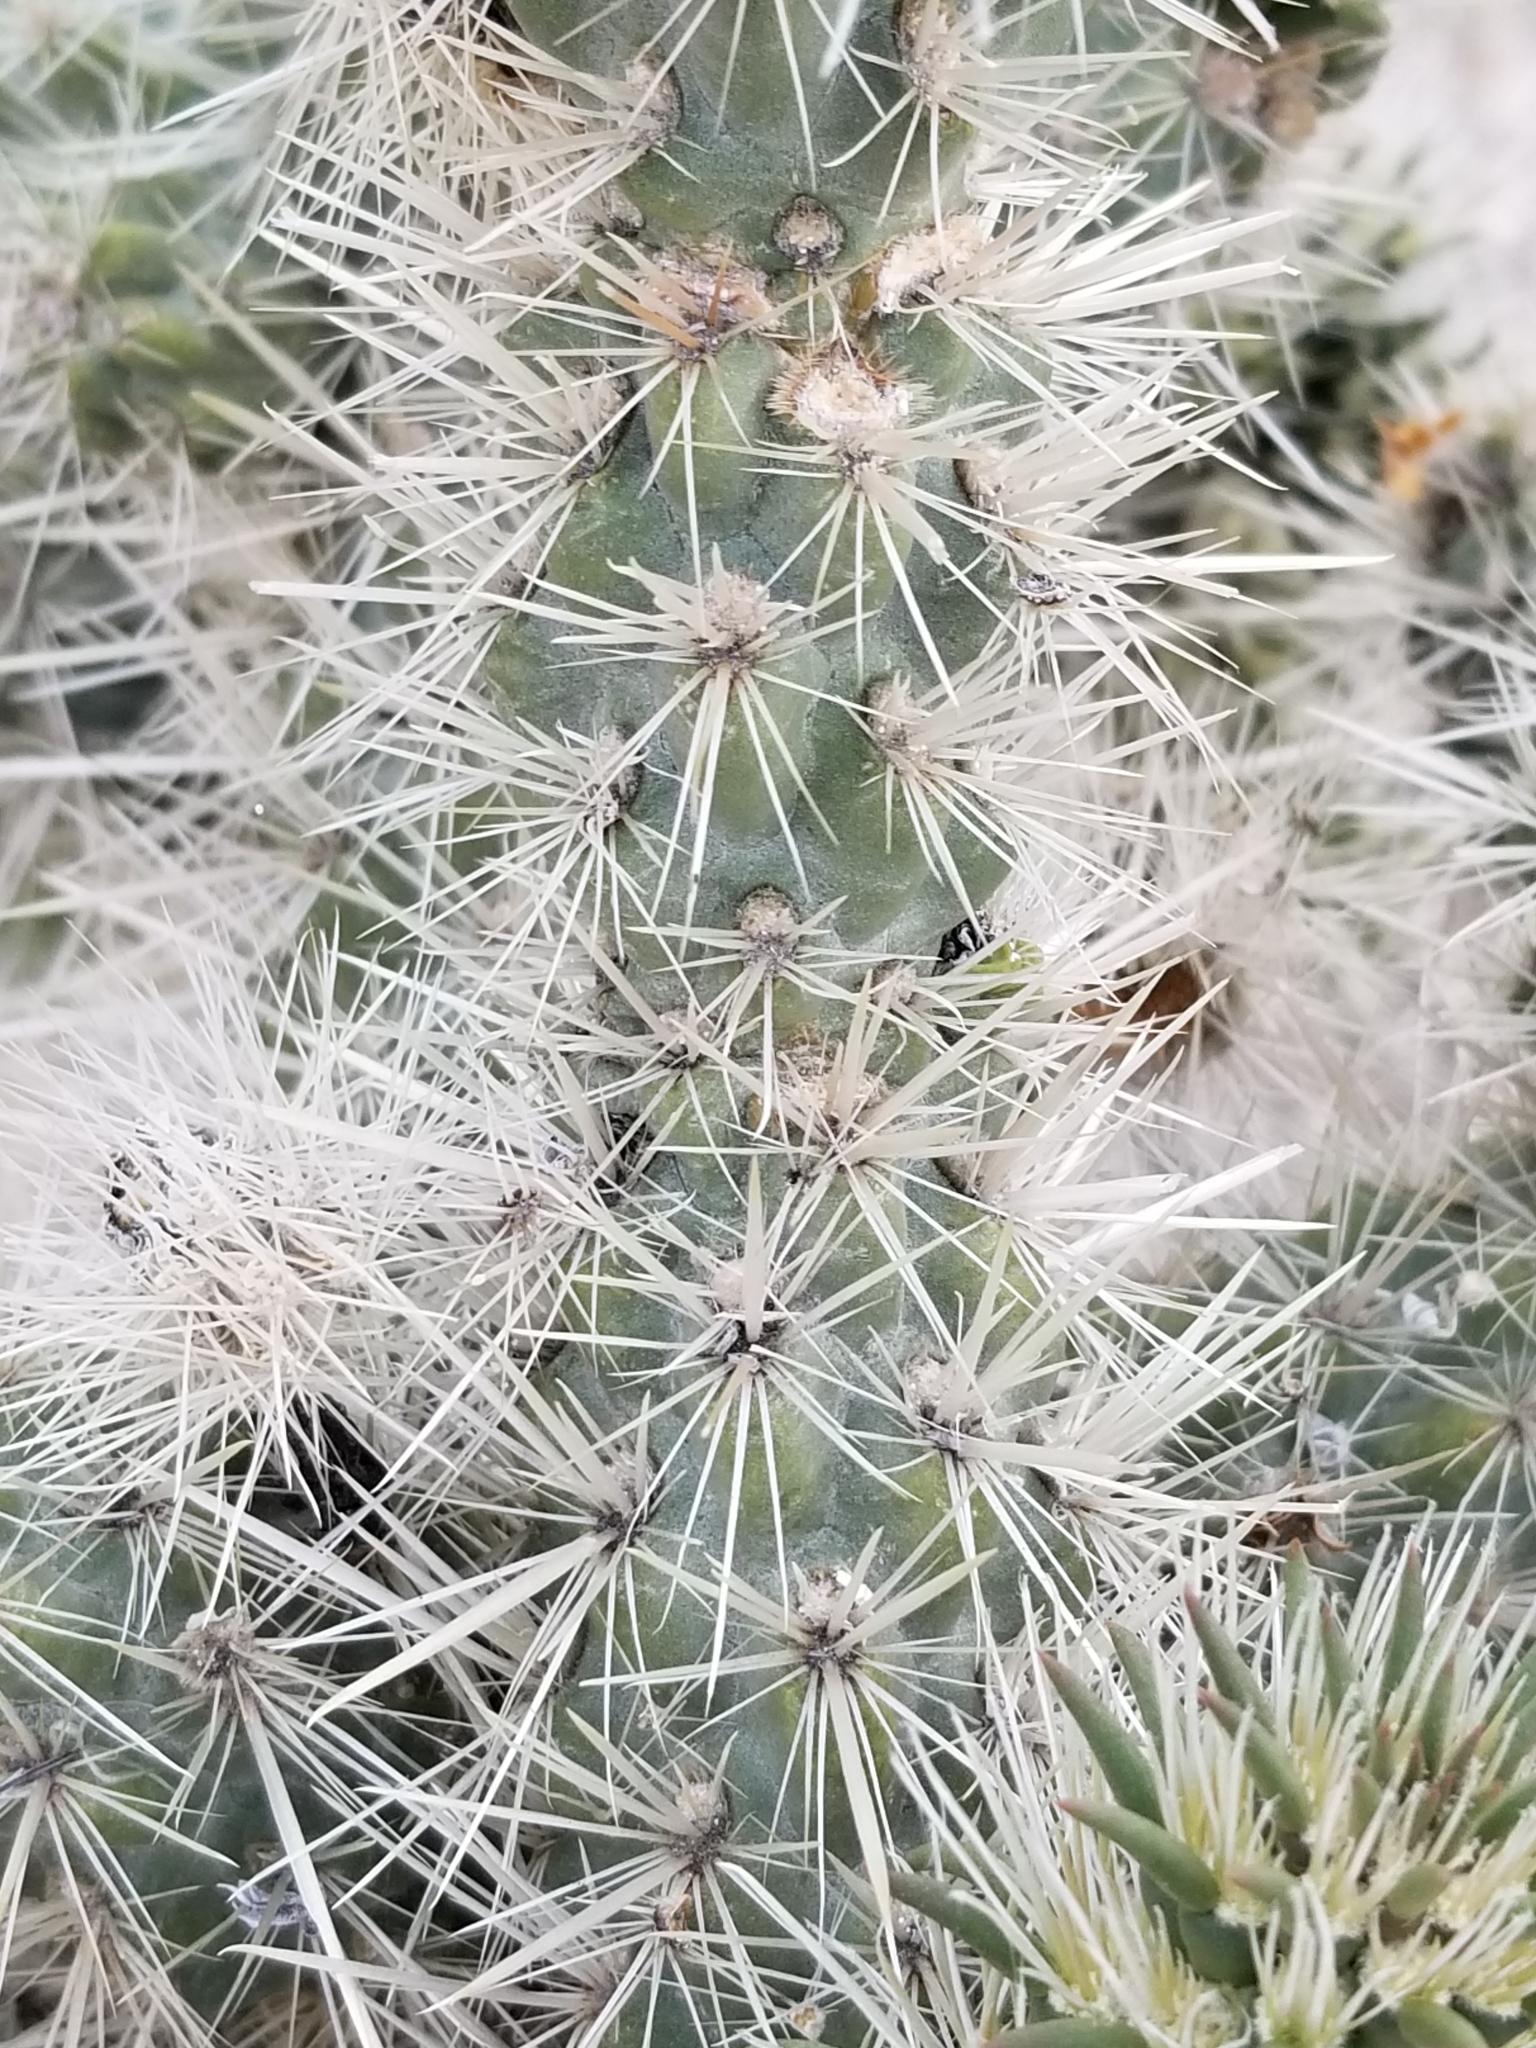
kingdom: Plantae
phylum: Tracheophyta
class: Magnoliopsida
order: Caryophyllales
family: Cactaceae
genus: Cylindropuntia
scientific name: Cylindropuntia echinocarpa
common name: Ground cholla
